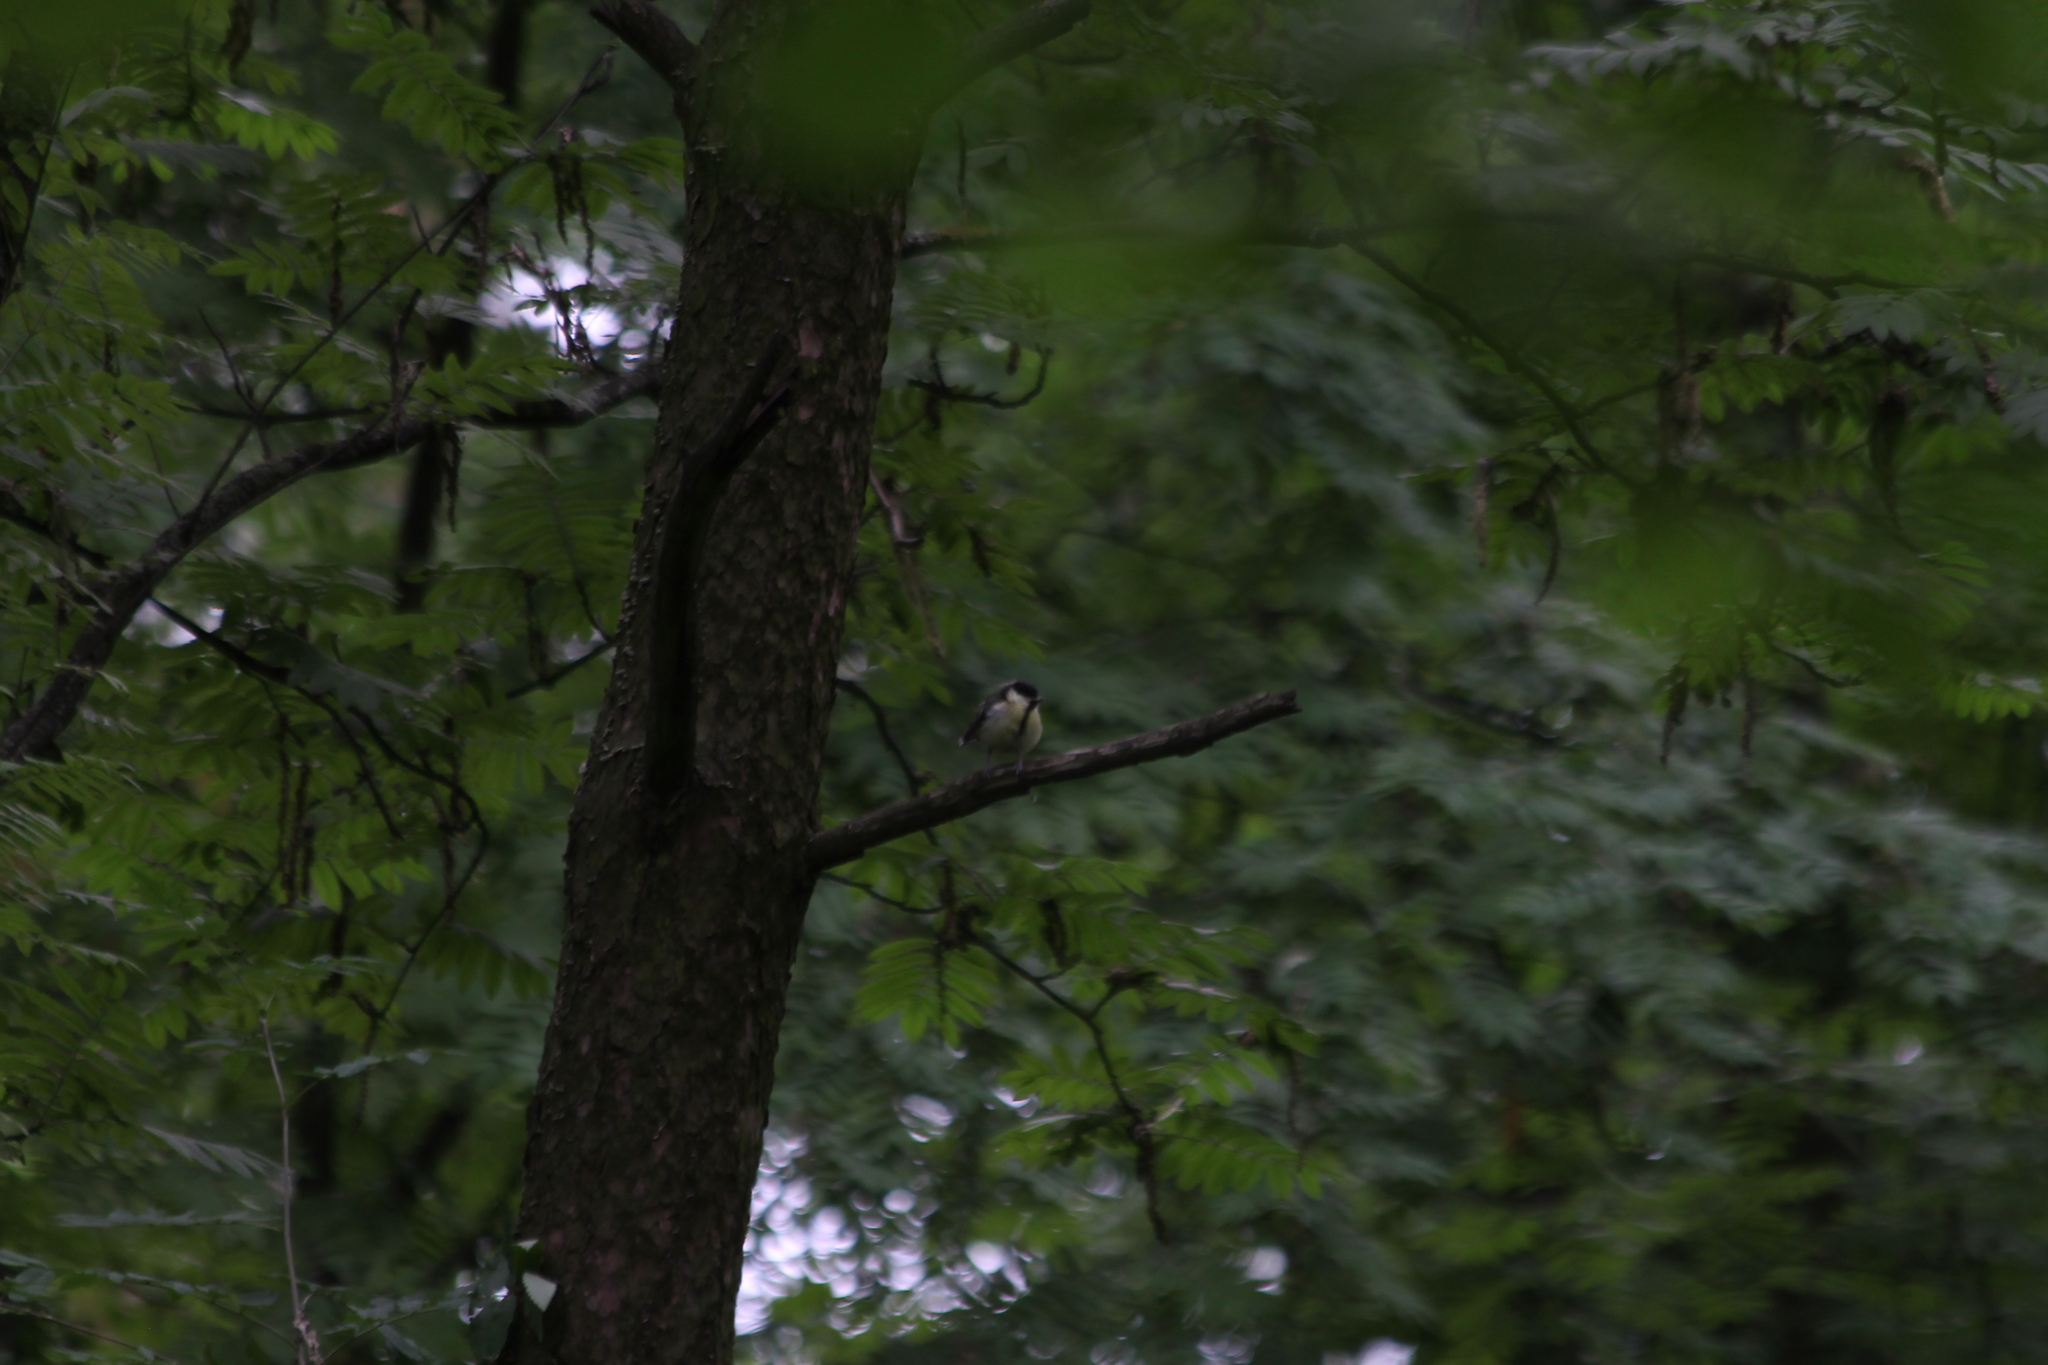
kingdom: Animalia
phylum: Chordata
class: Aves
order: Passeriformes
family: Paridae
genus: Parus
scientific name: Parus major
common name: Great tit
